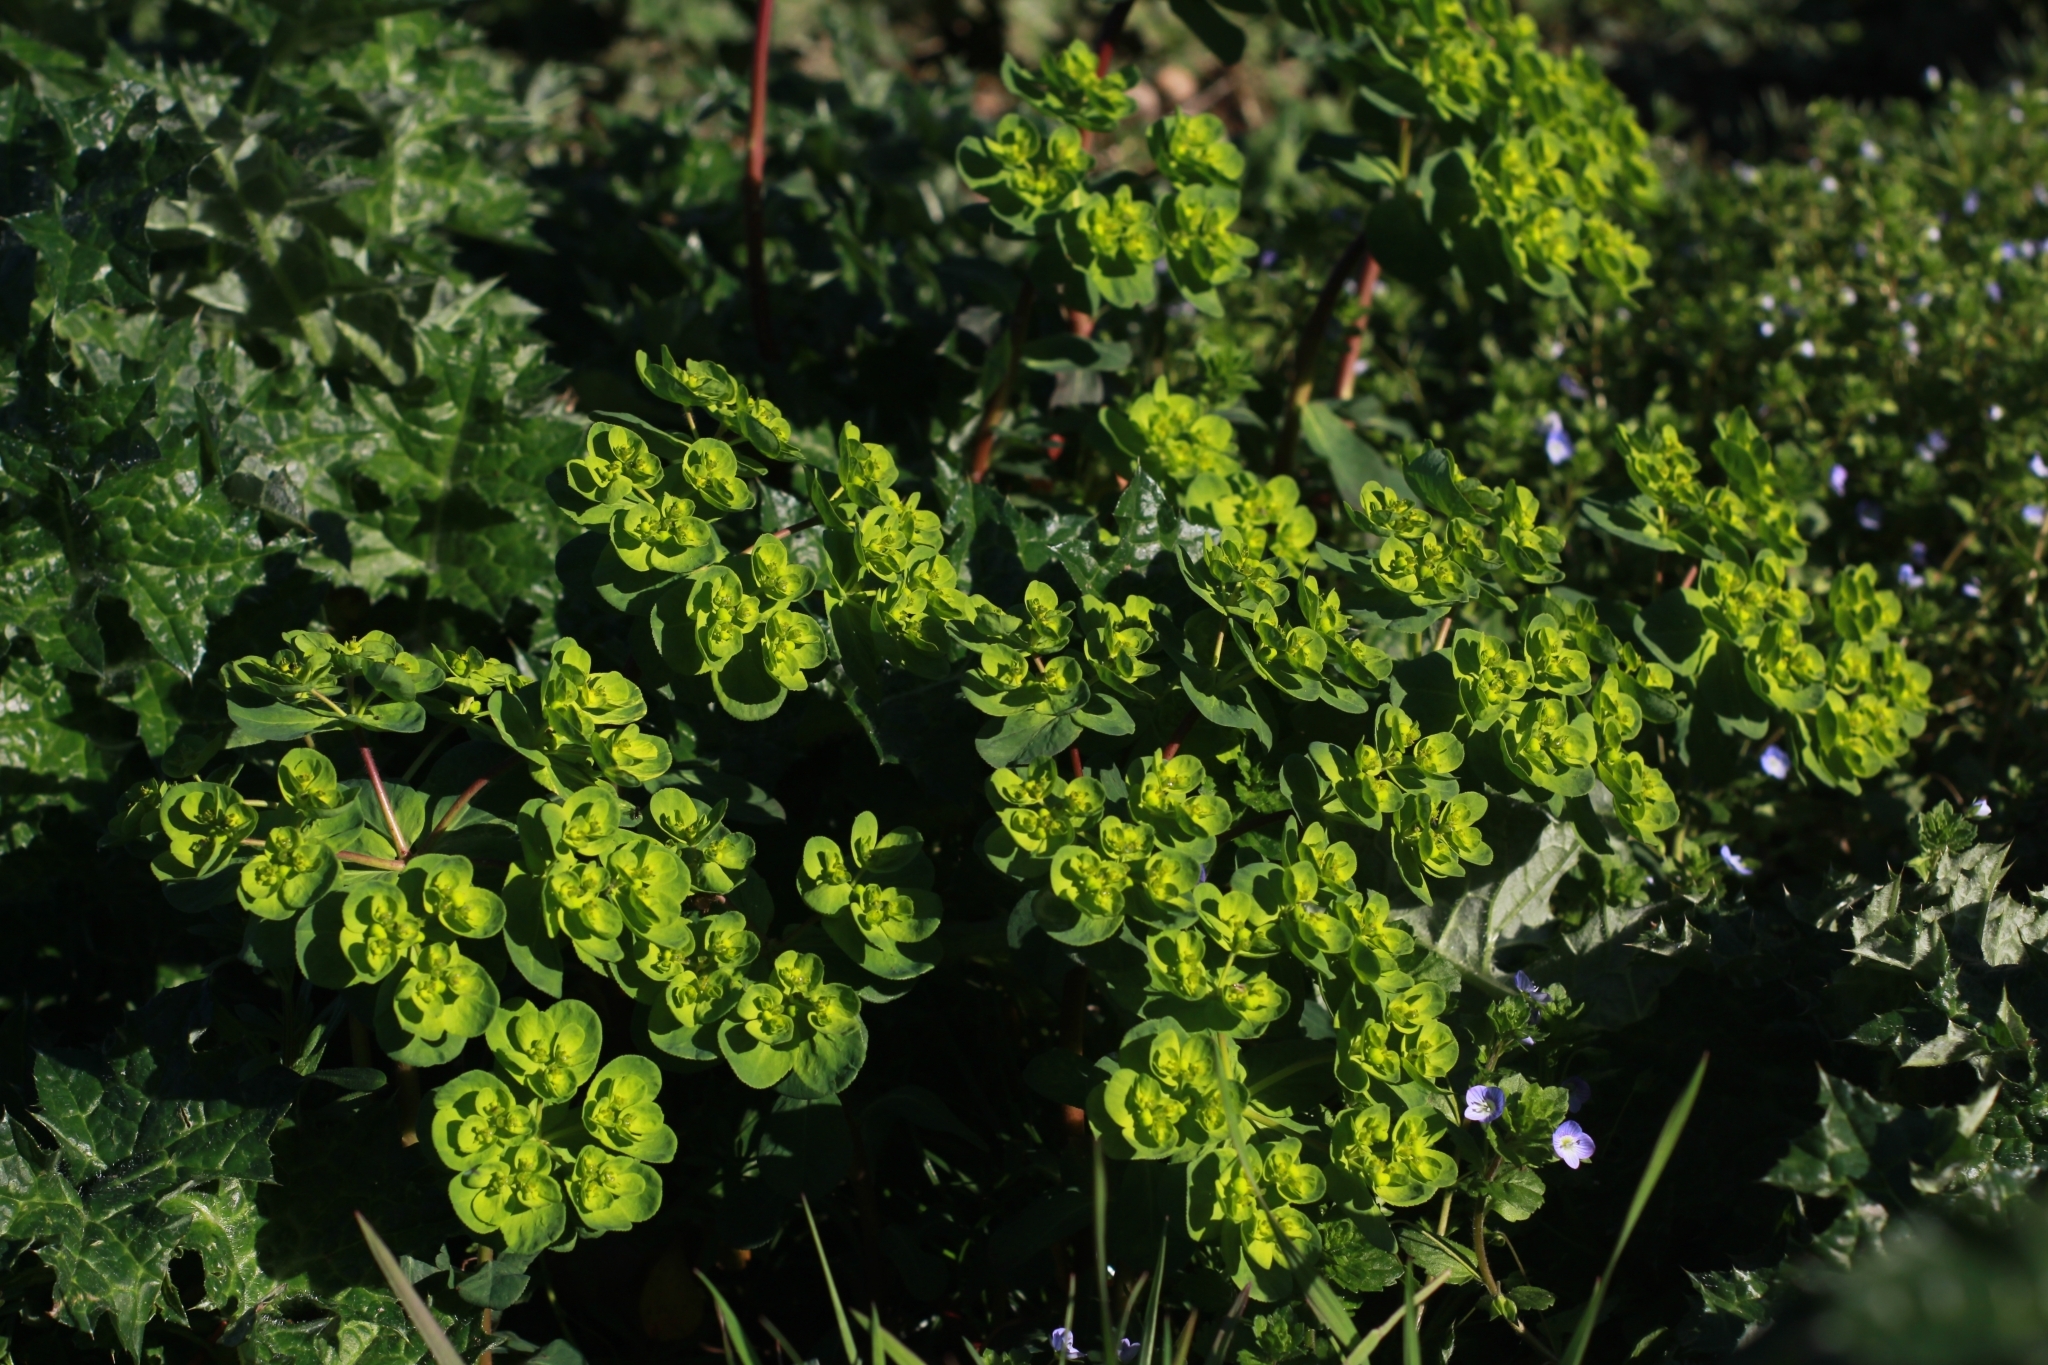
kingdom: Plantae
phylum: Tracheophyta
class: Magnoliopsida
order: Malpighiales
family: Euphorbiaceae
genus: Euphorbia
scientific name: Euphorbia helioscopia
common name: Sun spurge
